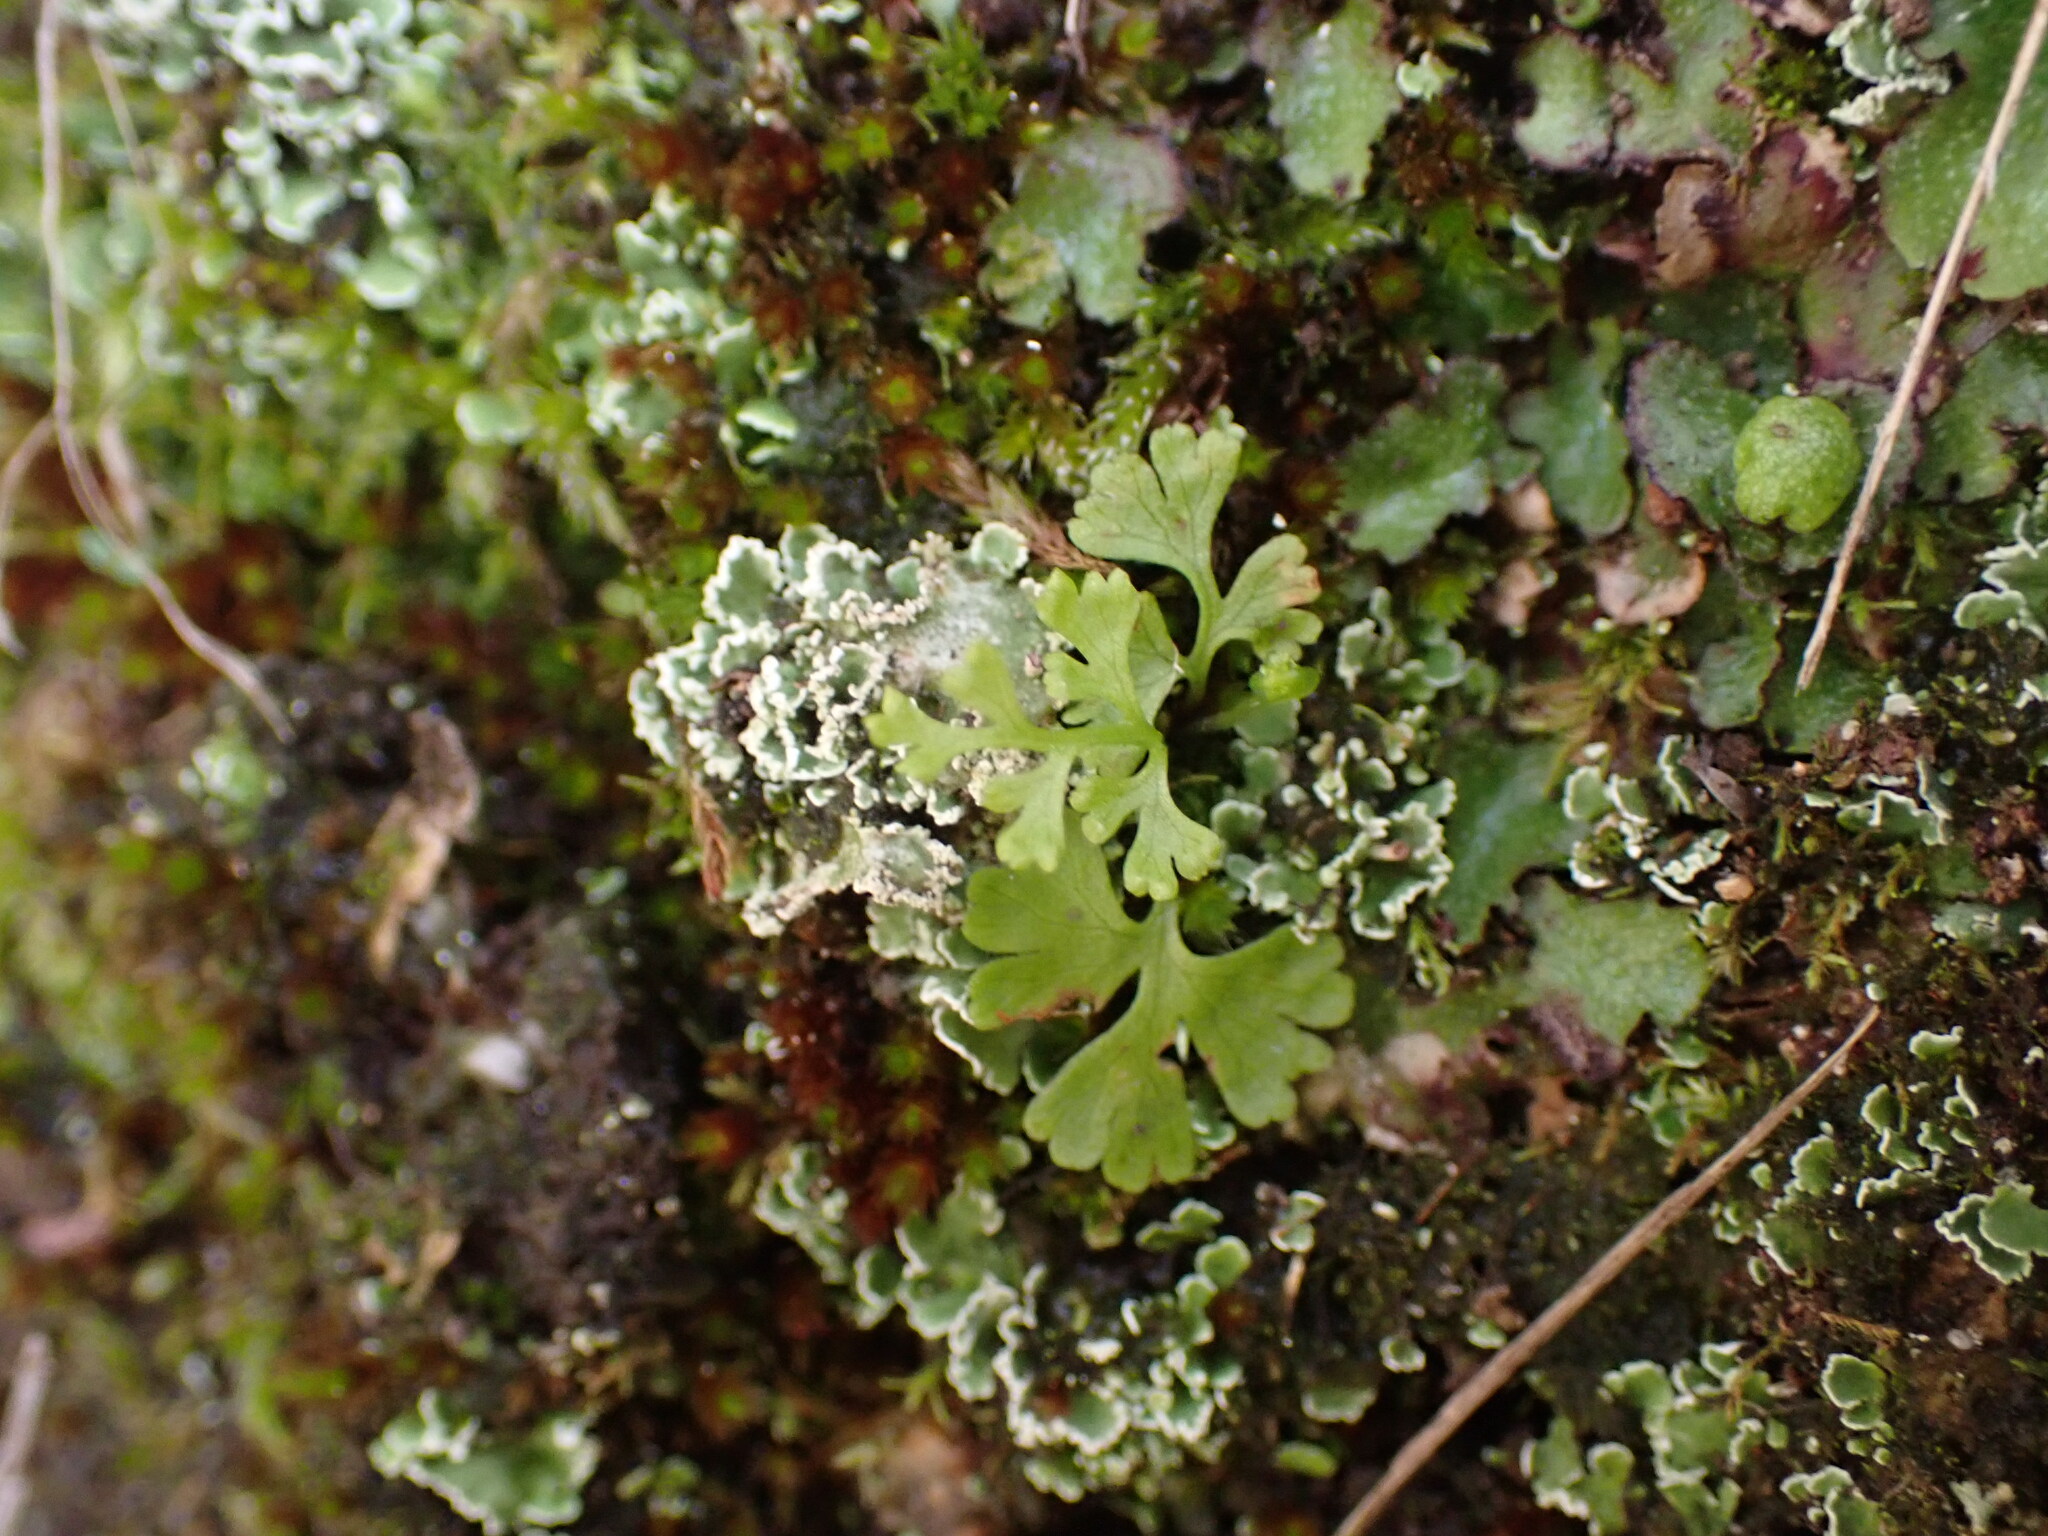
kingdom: Plantae
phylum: Tracheophyta
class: Polypodiopsida
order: Polypodiales
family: Pteridaceae
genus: Anogramma
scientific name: Anogramma leptophylla
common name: Jersey fern
